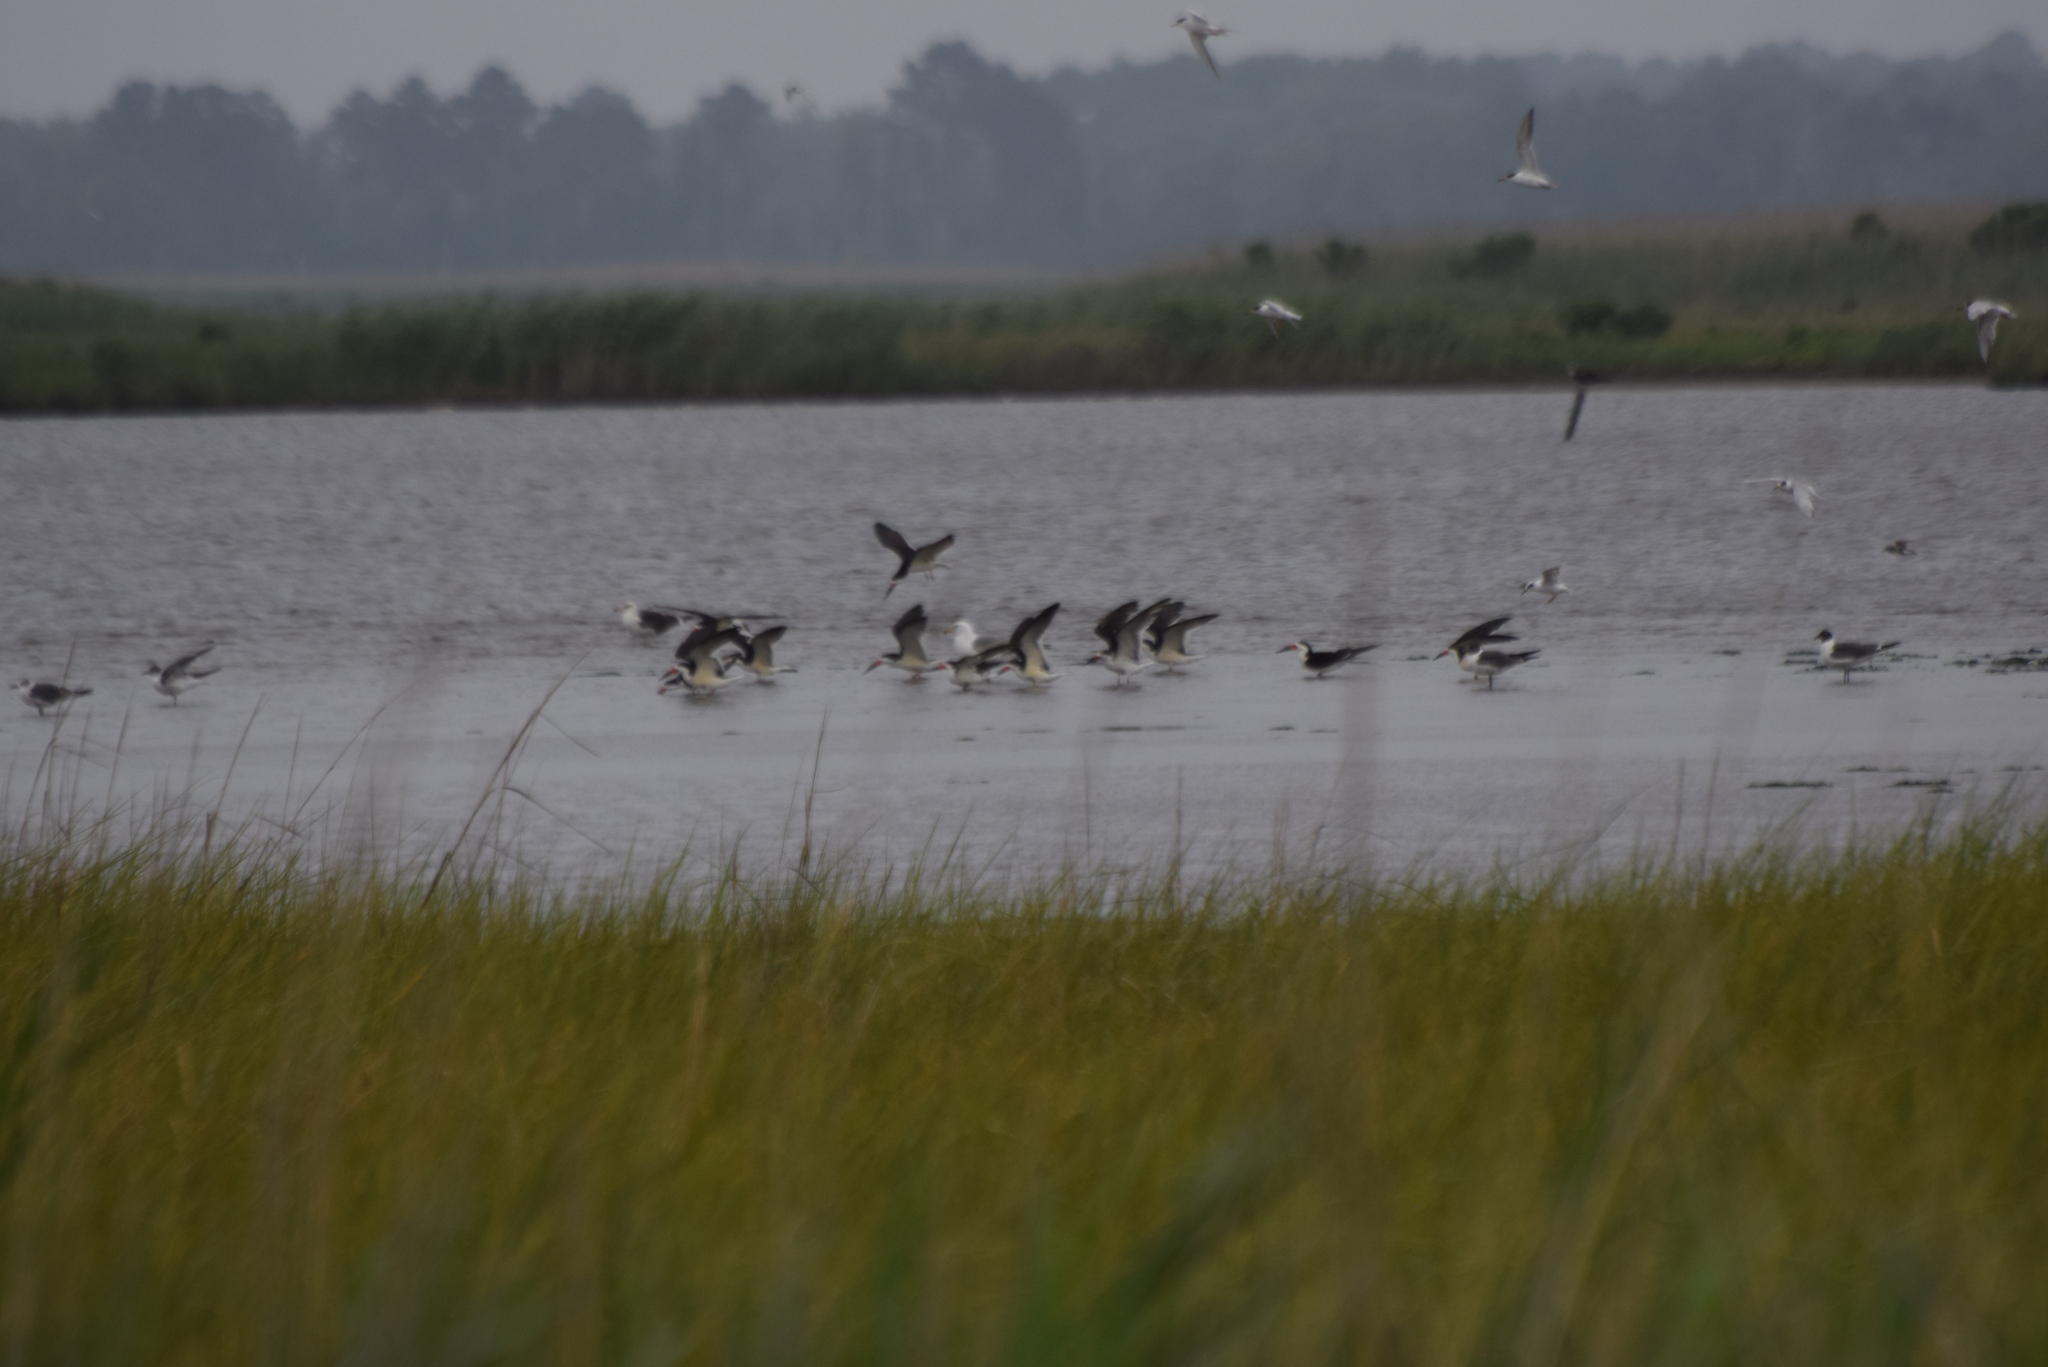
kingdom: Animalia
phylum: Chordata
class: Aves
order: Charadriiformes
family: Laridae
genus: Rynchops
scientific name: Rynchops niger
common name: Black skimmer
